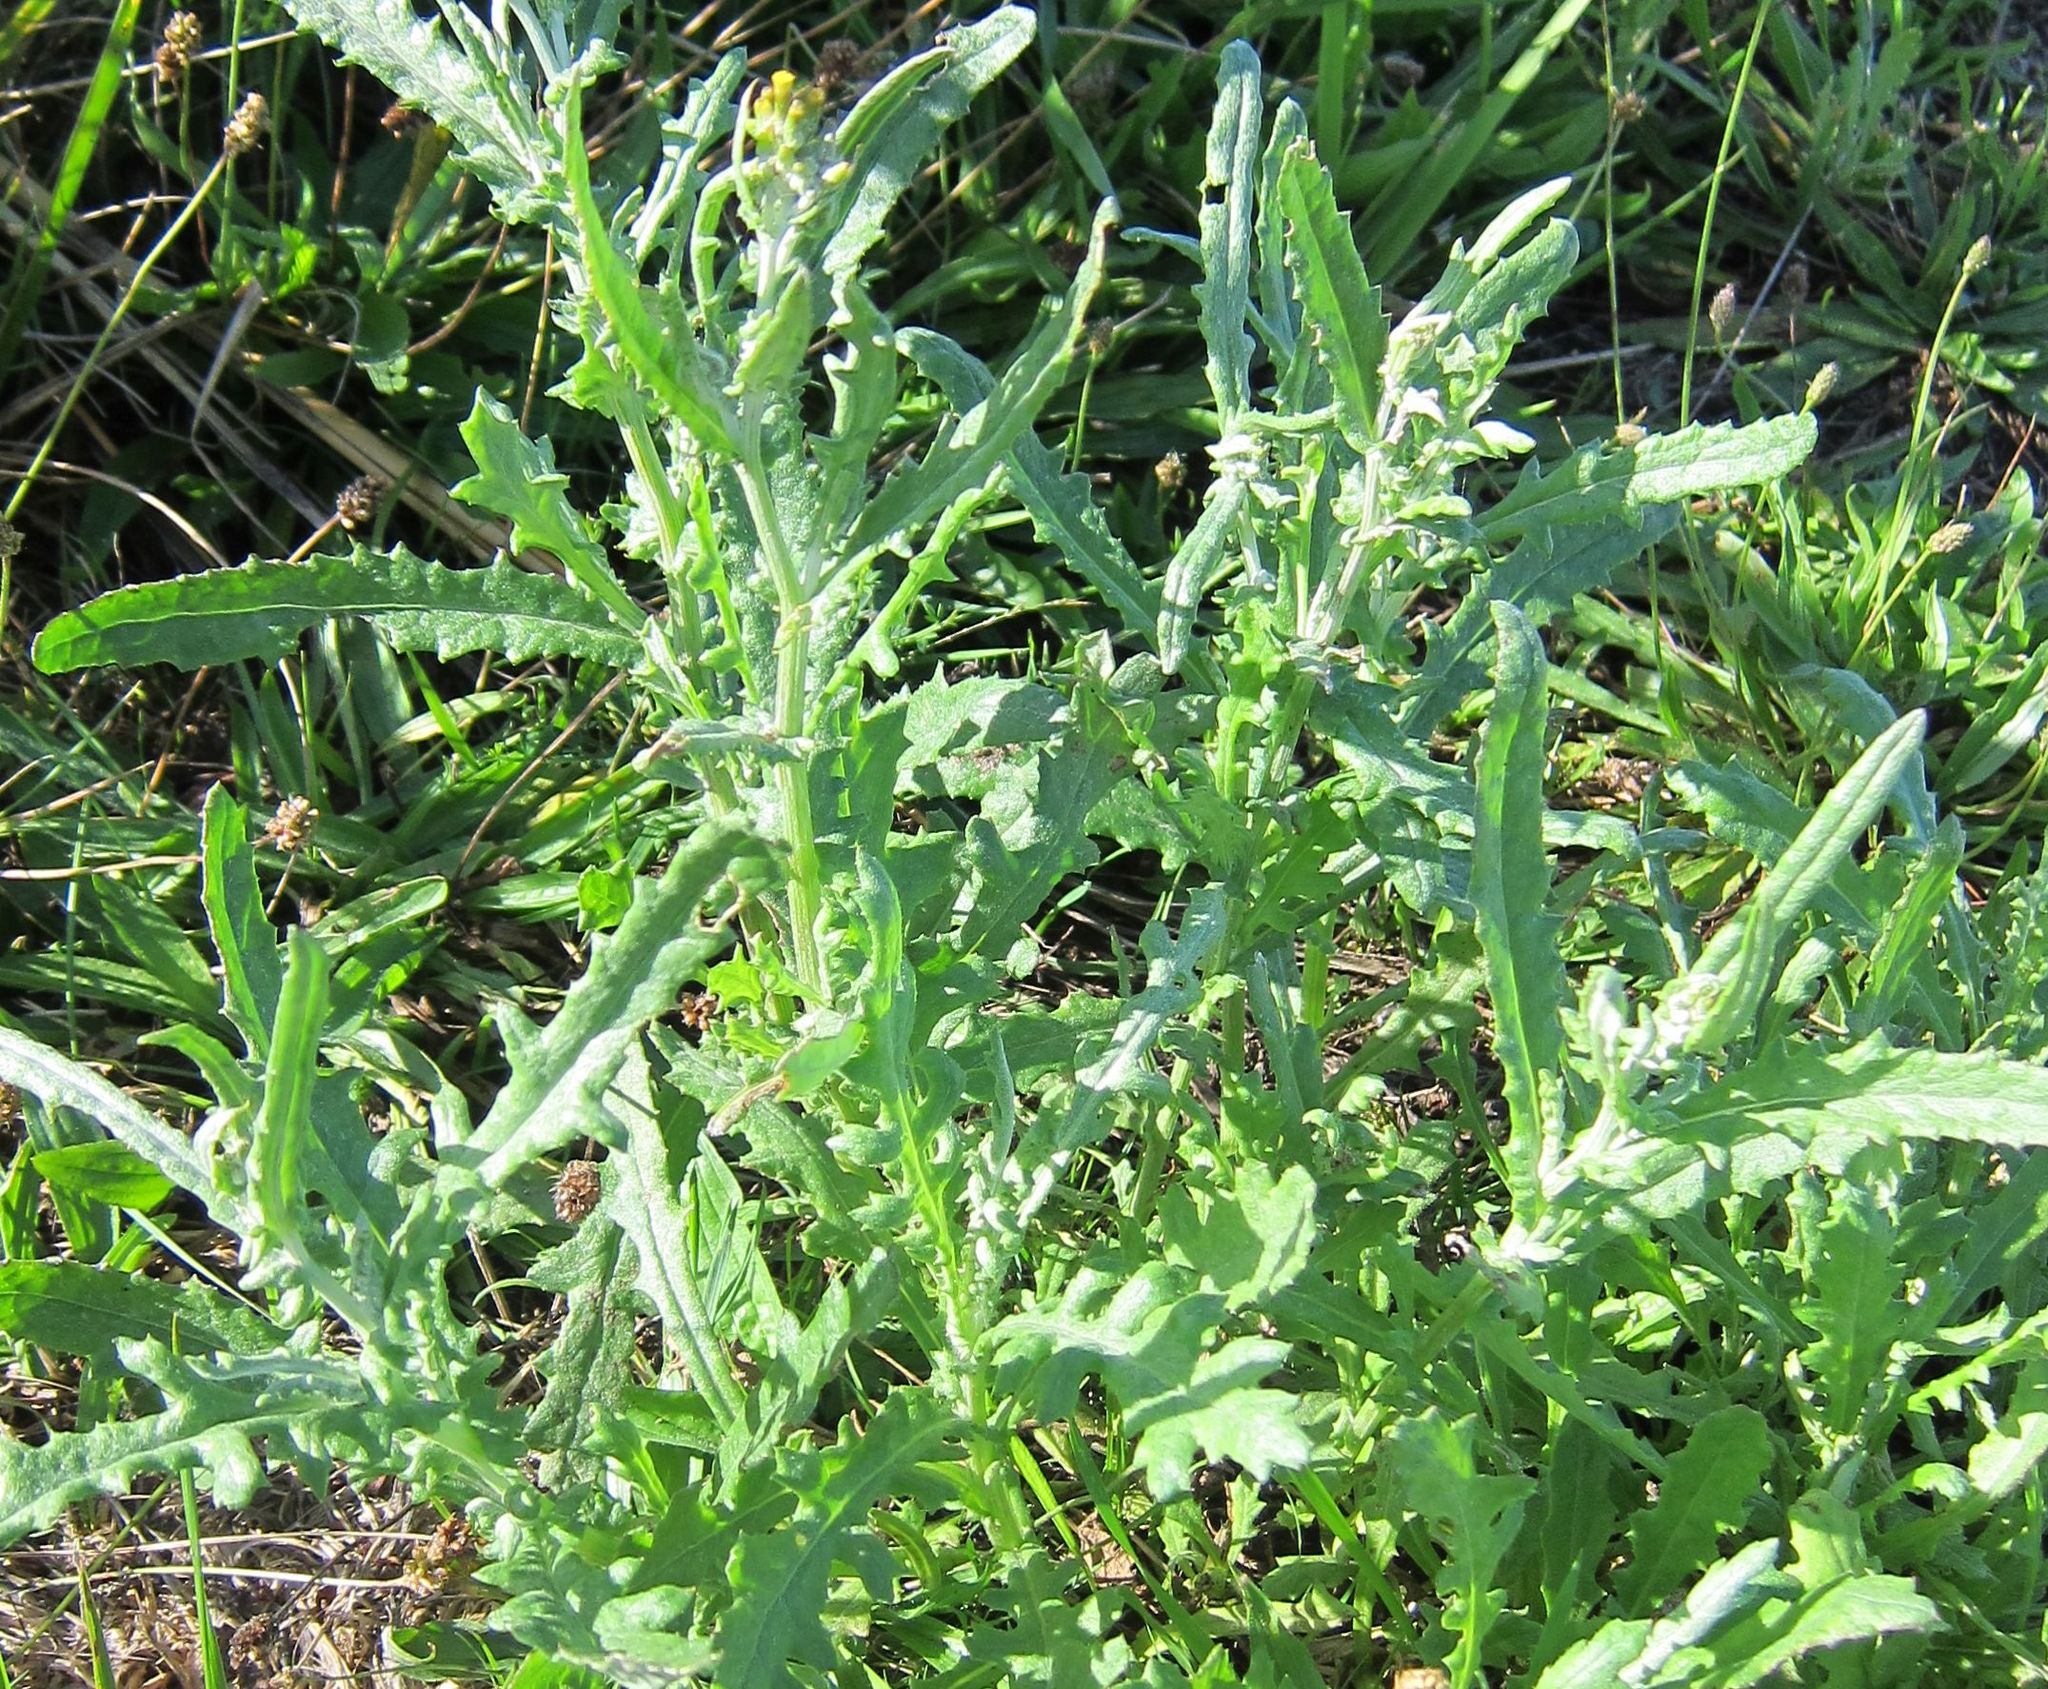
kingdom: Plantae
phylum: Tracheophyta
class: Magnoliopsida
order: Asterales
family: Asteraceae
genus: Senecio
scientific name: Senecio glomeratus
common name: Cutleaf burnweed
